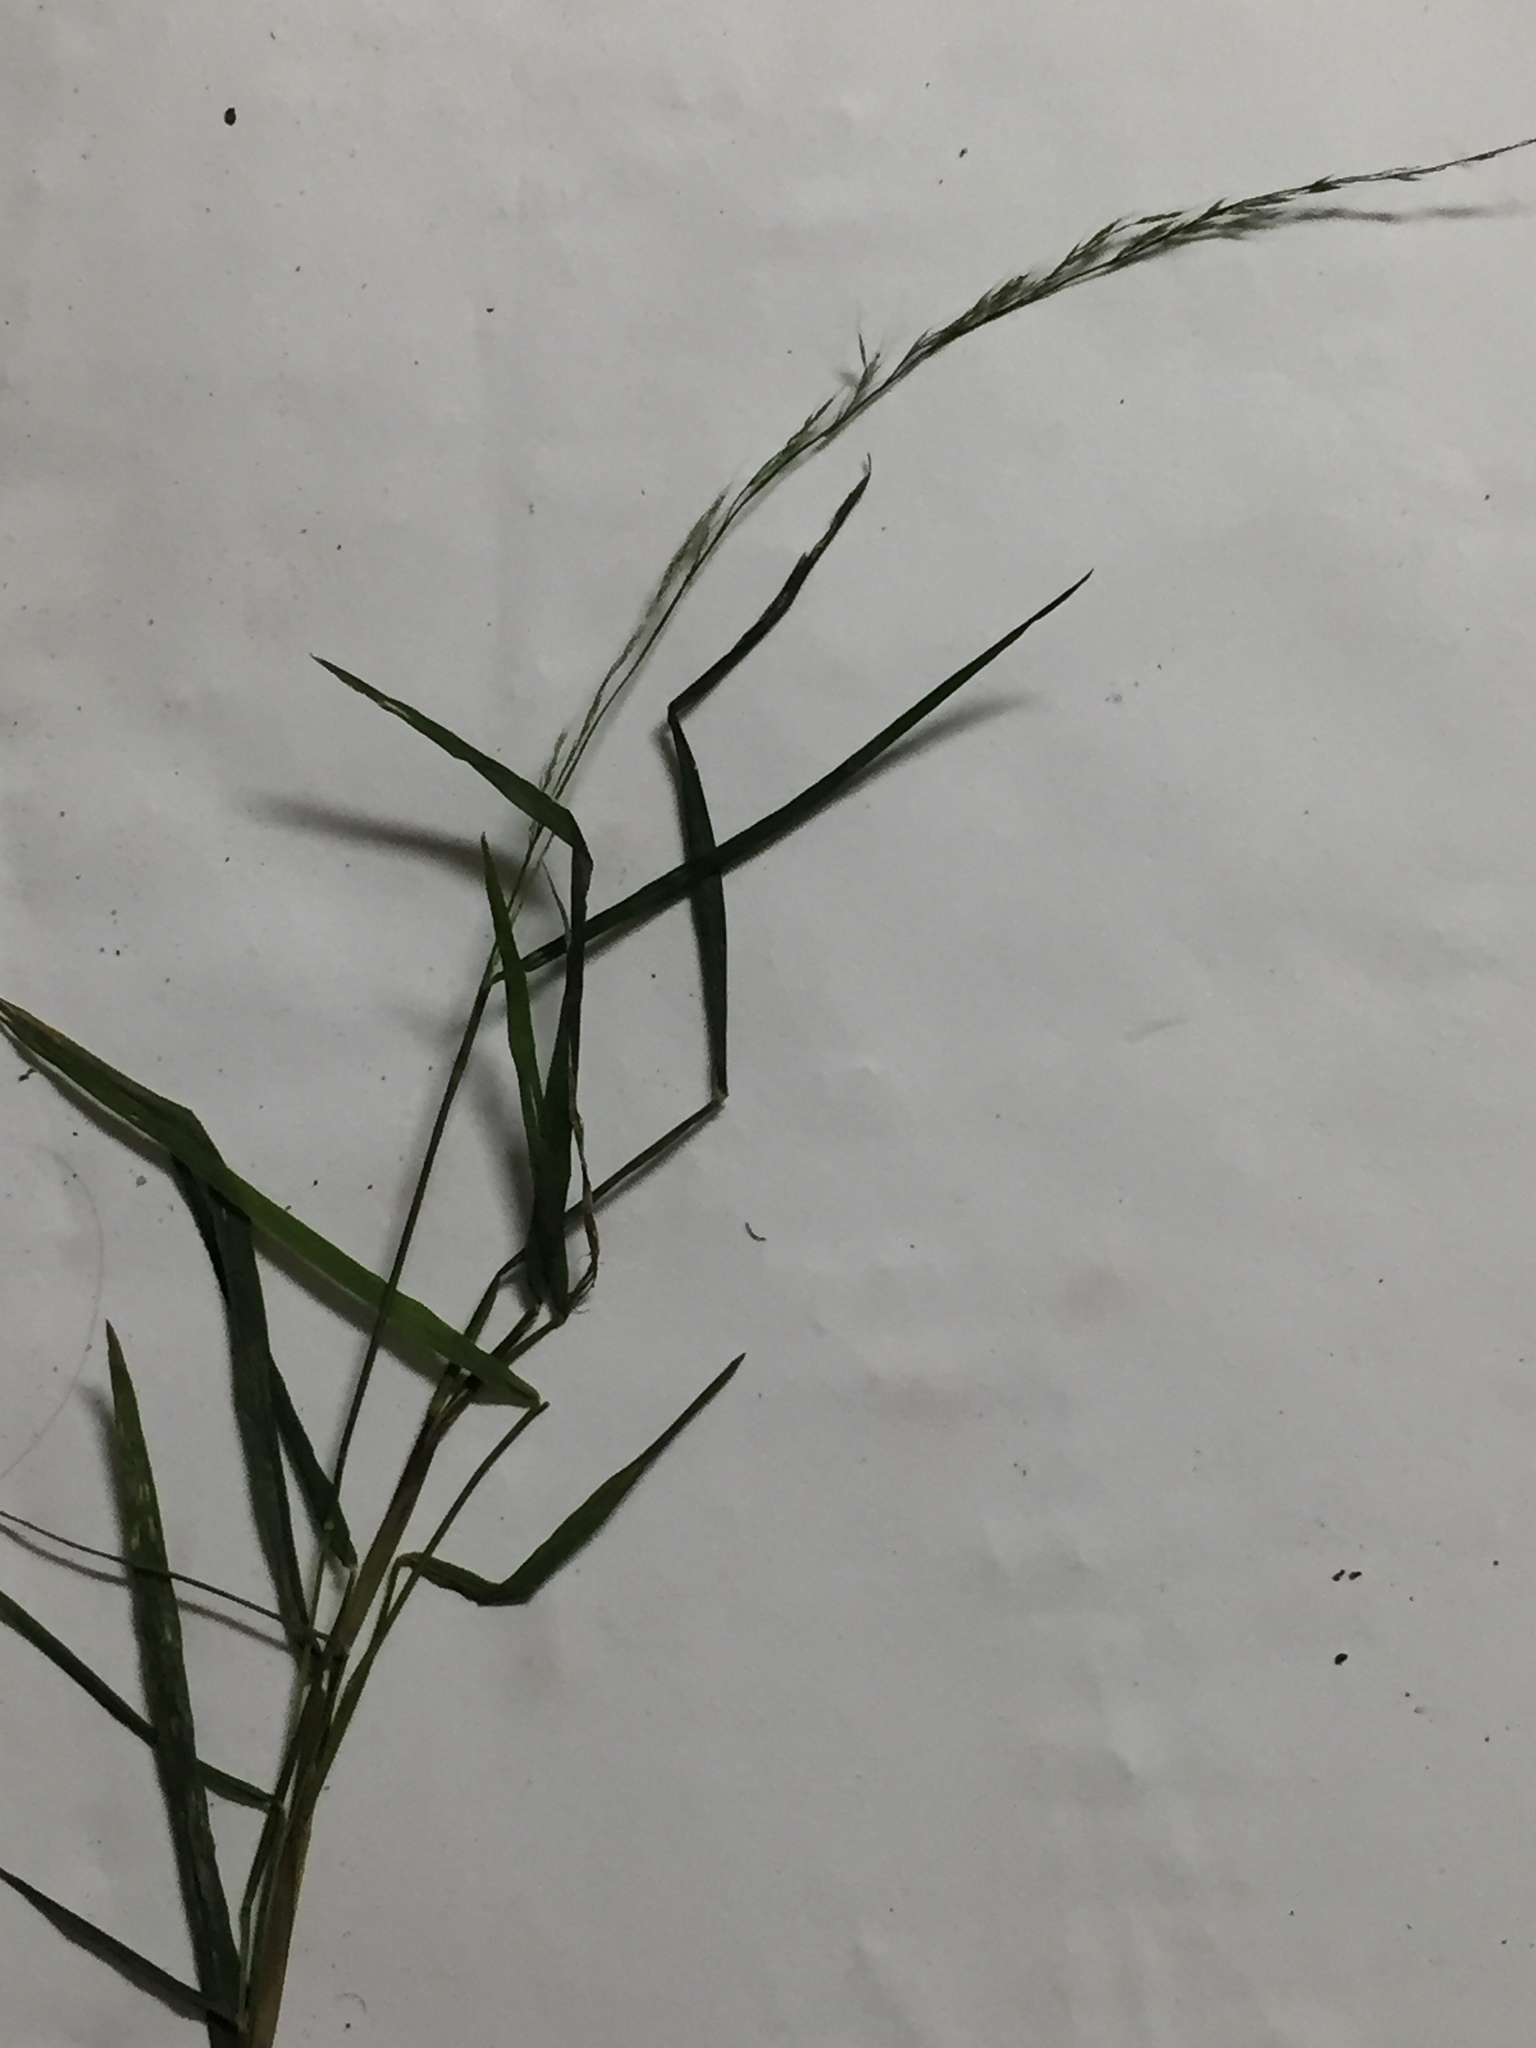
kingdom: Plantae
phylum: Tracheophyta
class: Liliopsida
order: Poales
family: Poaceae
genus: Muhlenbergia
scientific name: Muhlenbergia schreberi
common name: Nimblewill
